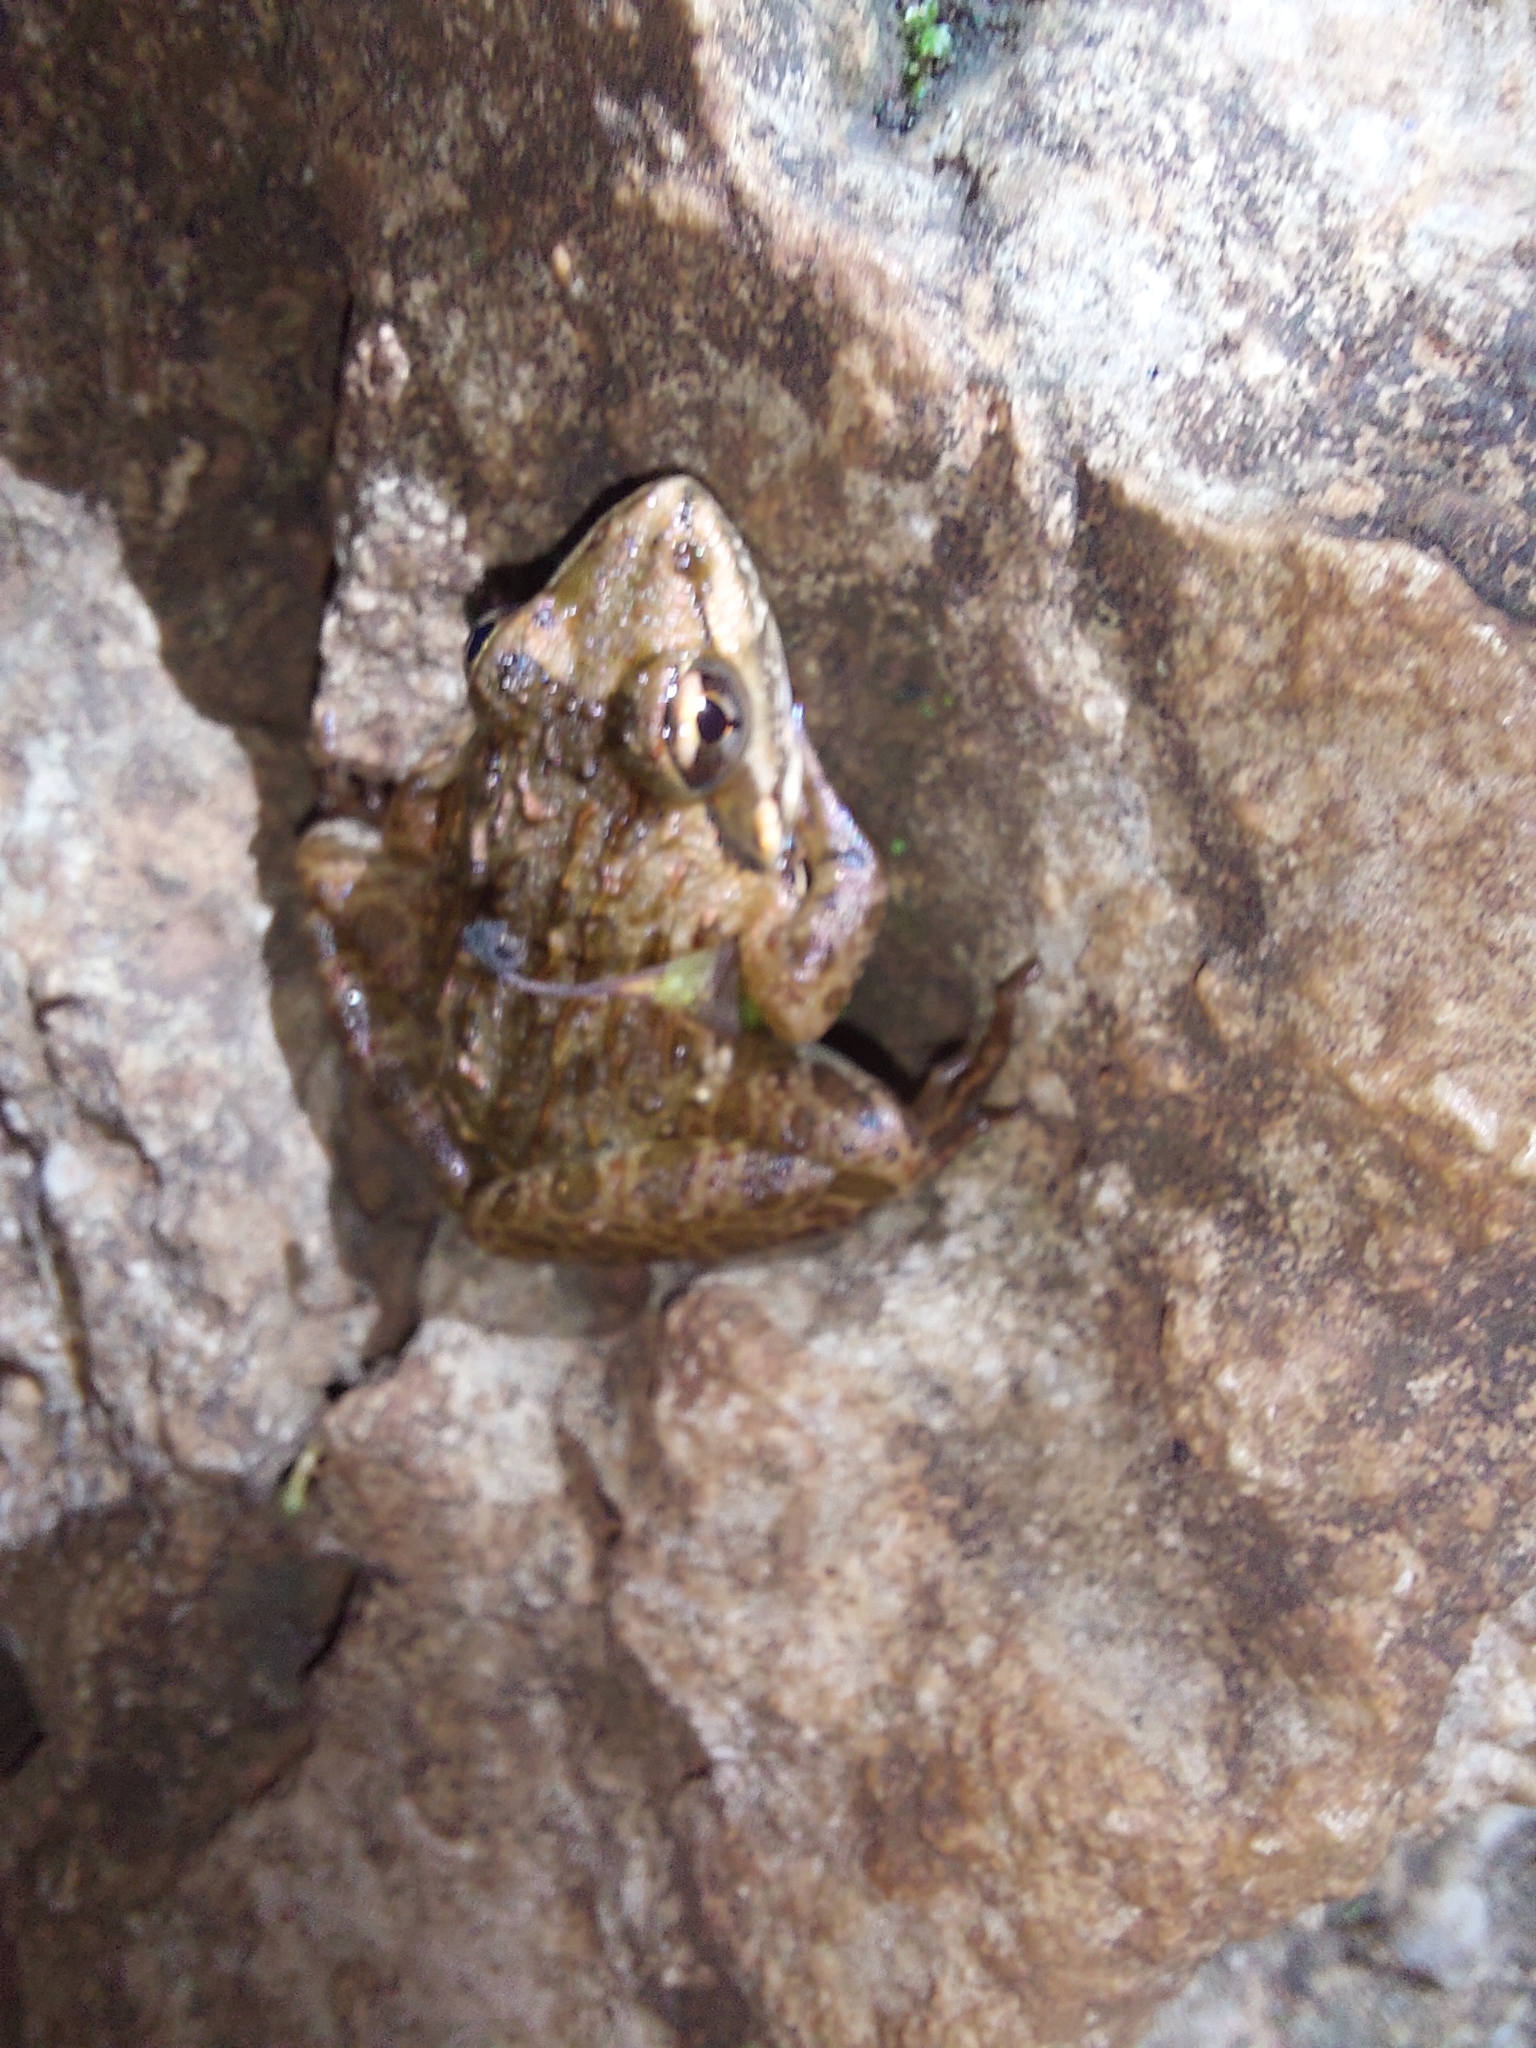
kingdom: Animalia
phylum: Chordata
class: Amphibia
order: Anura
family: Pyxicephalidae
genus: Amietia
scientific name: Amietia delalandii
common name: Delalande's river frog
